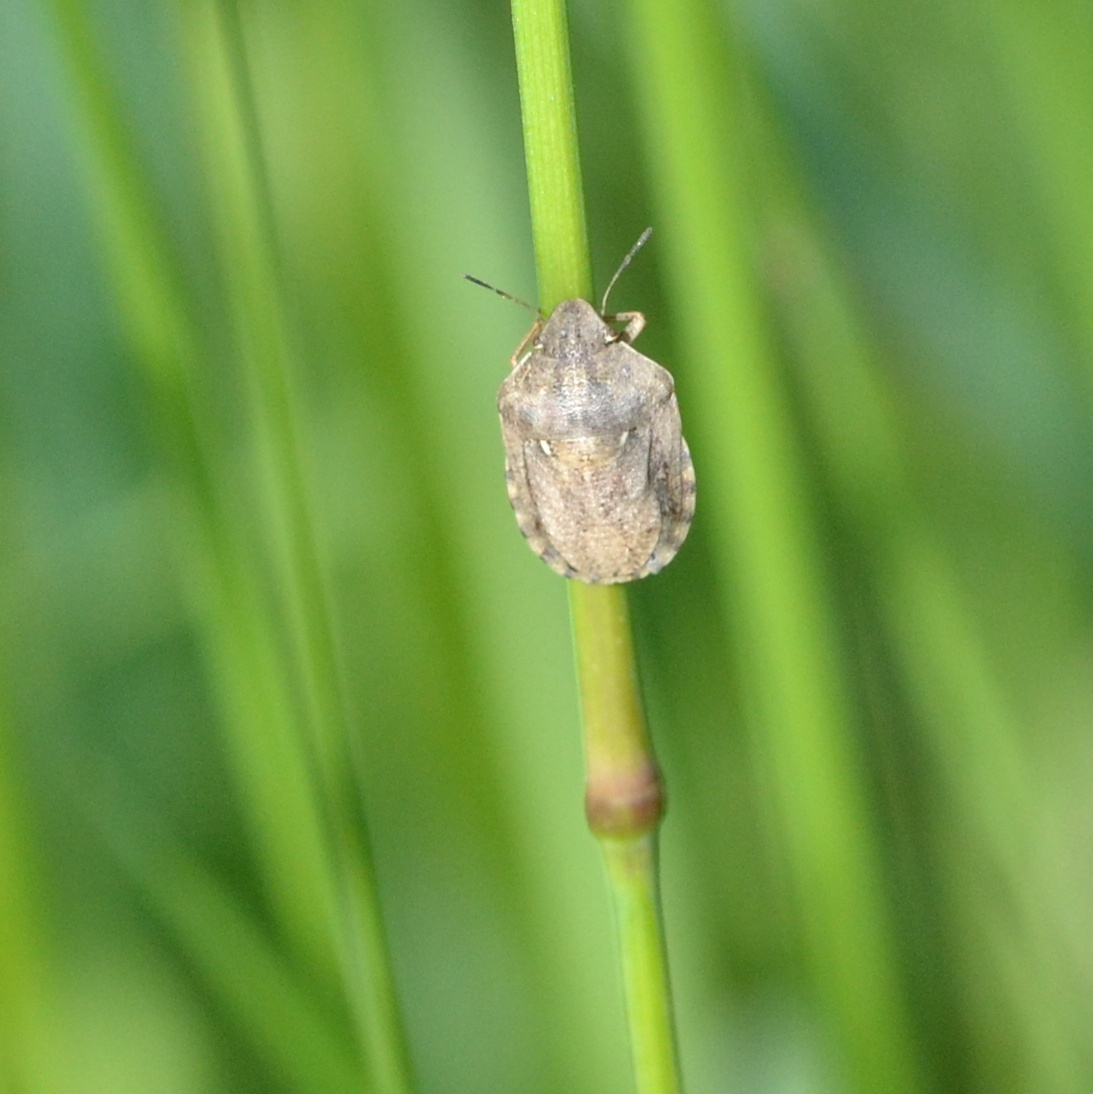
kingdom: Animalia
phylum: Arthropoda
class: Insecta
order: Hemiptera
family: Scutelleridae
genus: Eurygaster
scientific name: Eurygaster maura
